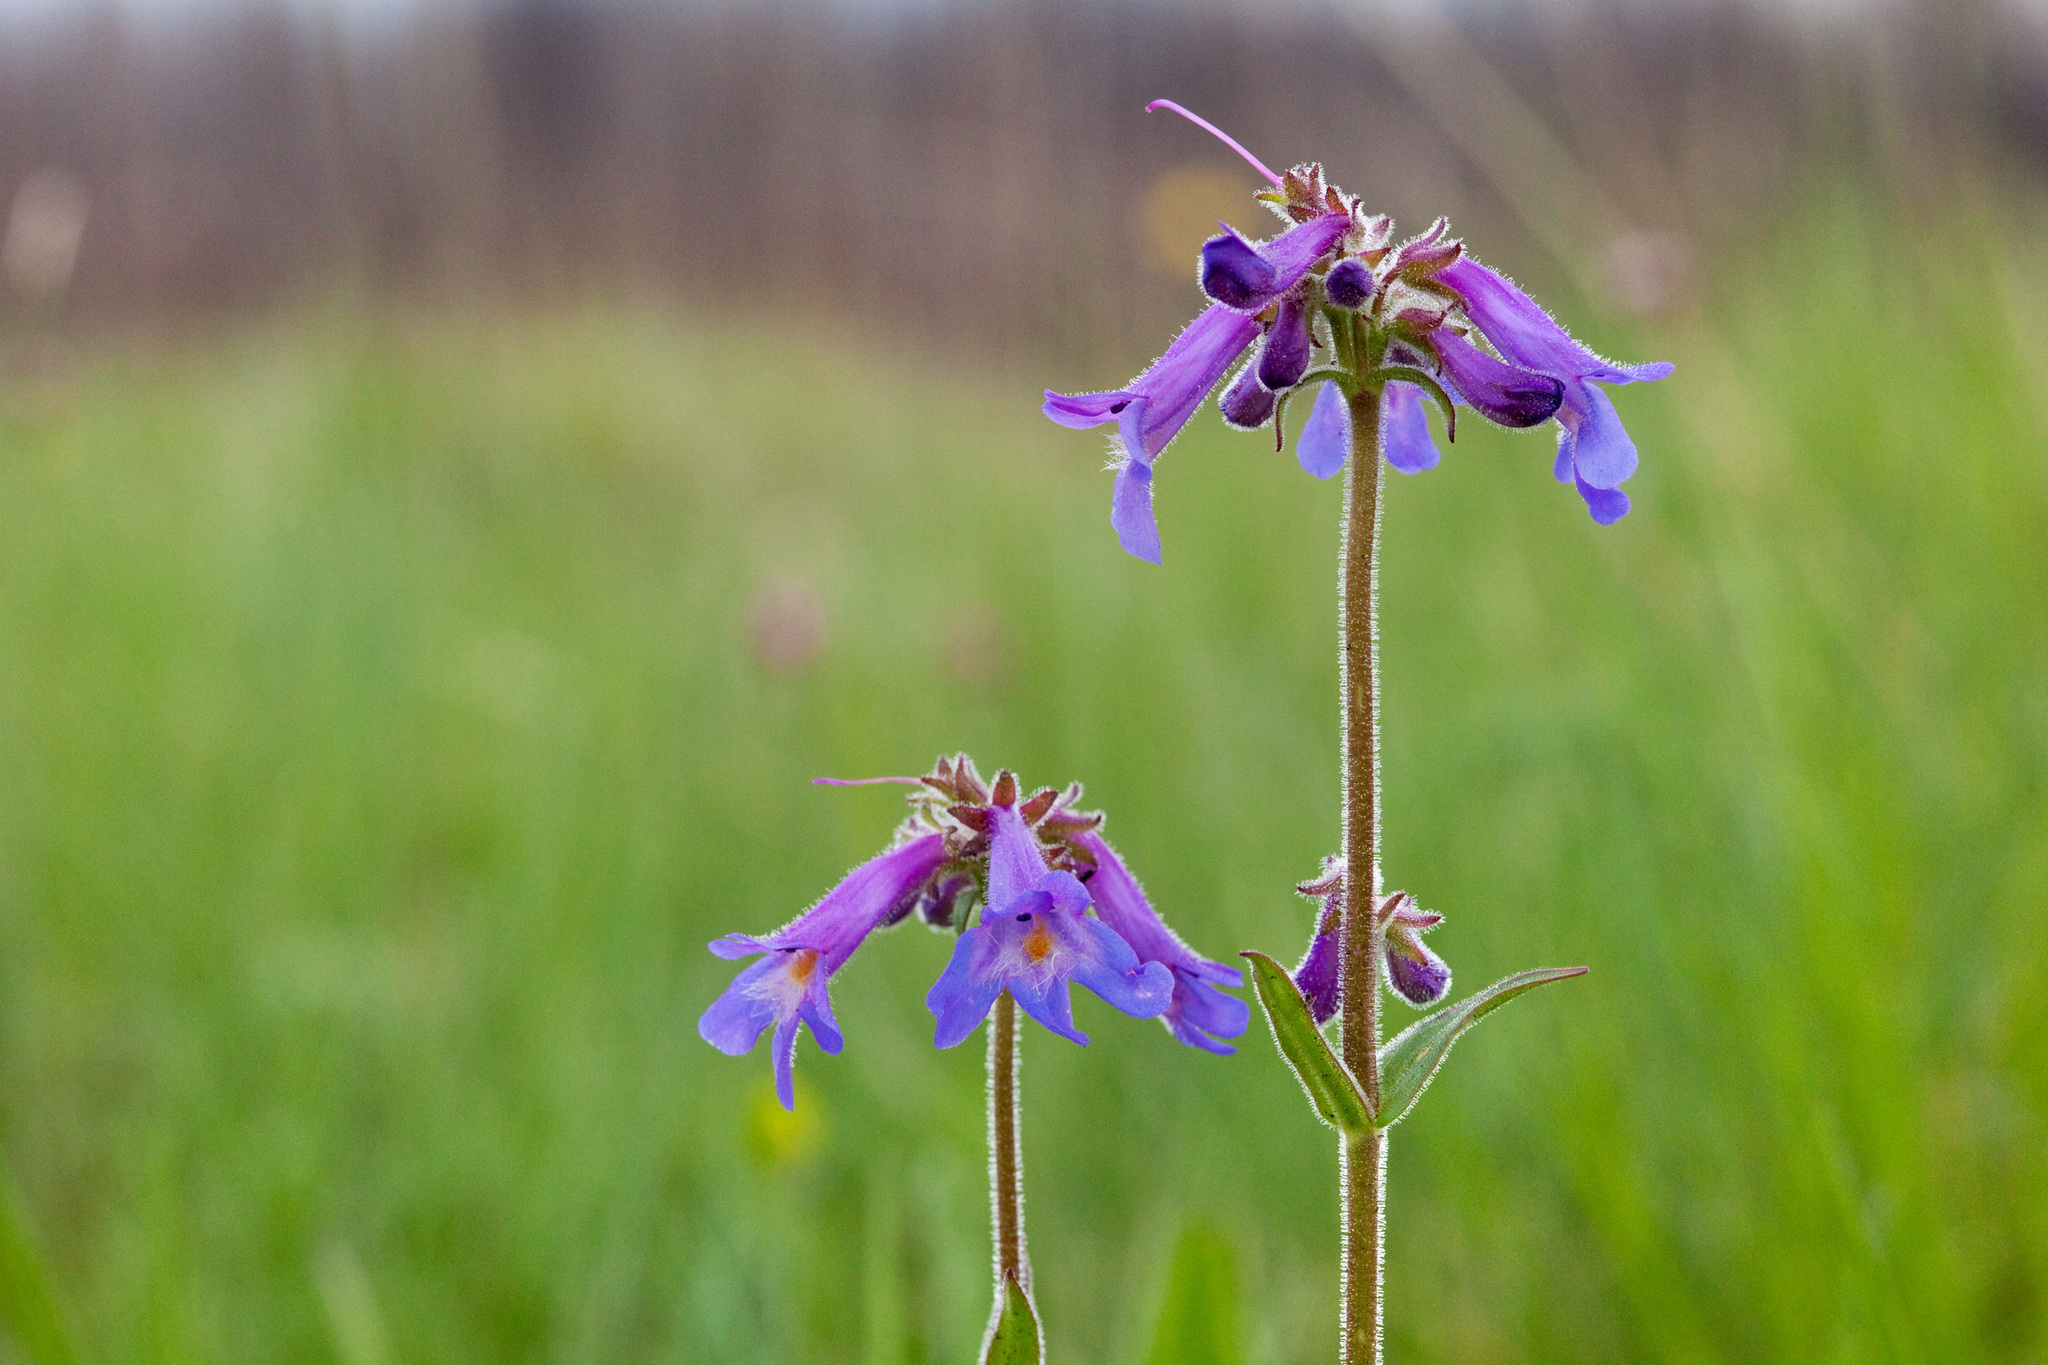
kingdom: Plantae
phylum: Tracheophyta
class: Magnoliopsida
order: Lamiales
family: Plantaginaceae
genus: Penstemon
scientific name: Penstemon oliganthus
